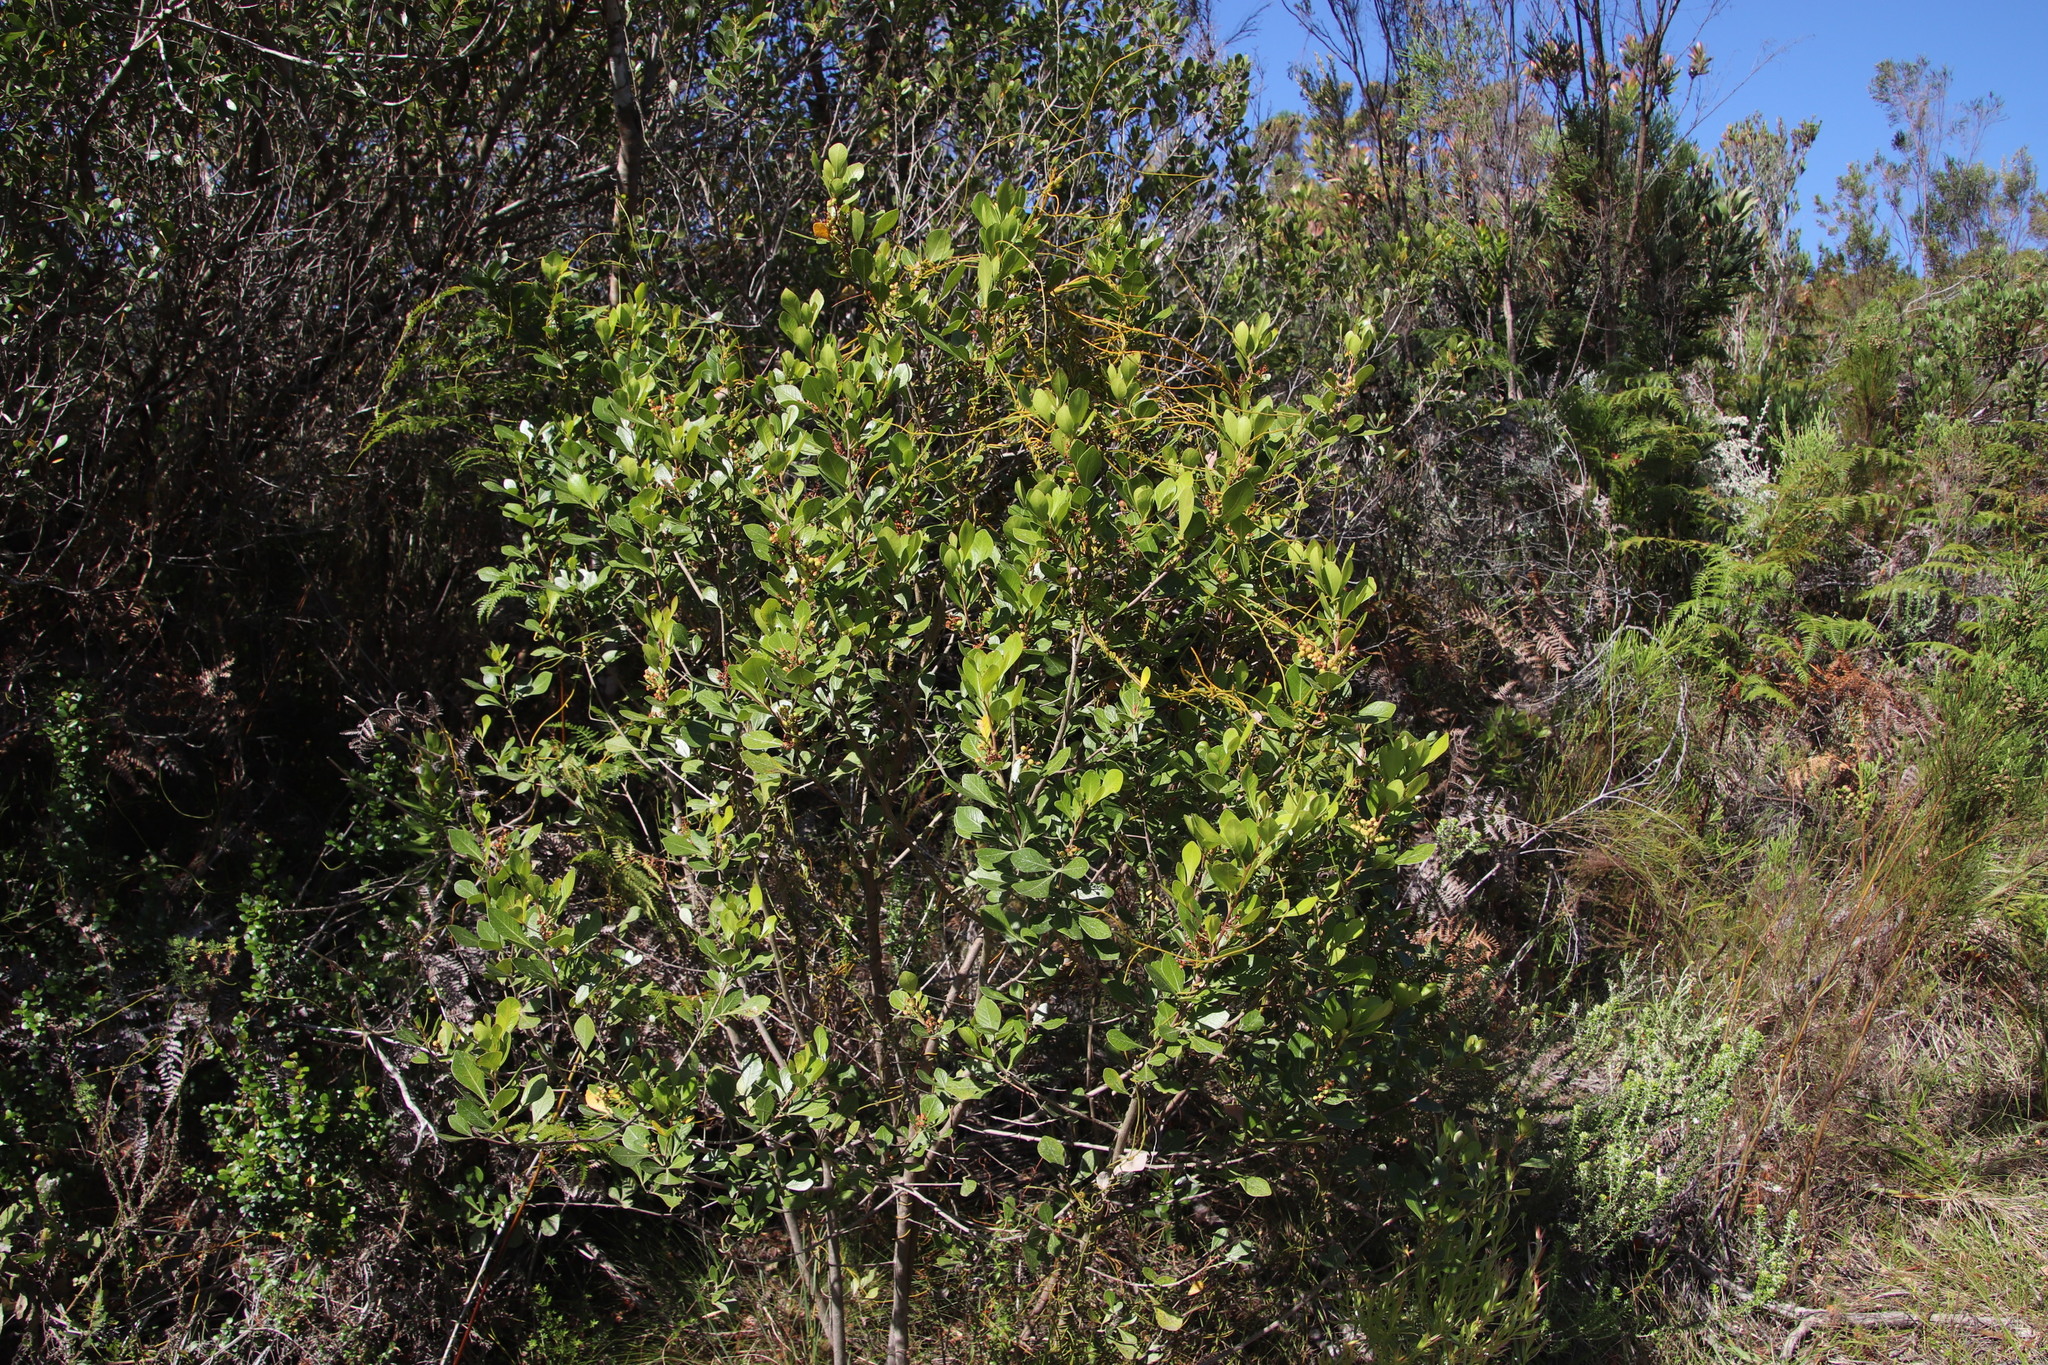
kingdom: Plantae
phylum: Tracheophyta
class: Magnoliopsida
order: Sapindales
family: Anacardiaceae
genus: Searsia
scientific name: Searsia lucida
